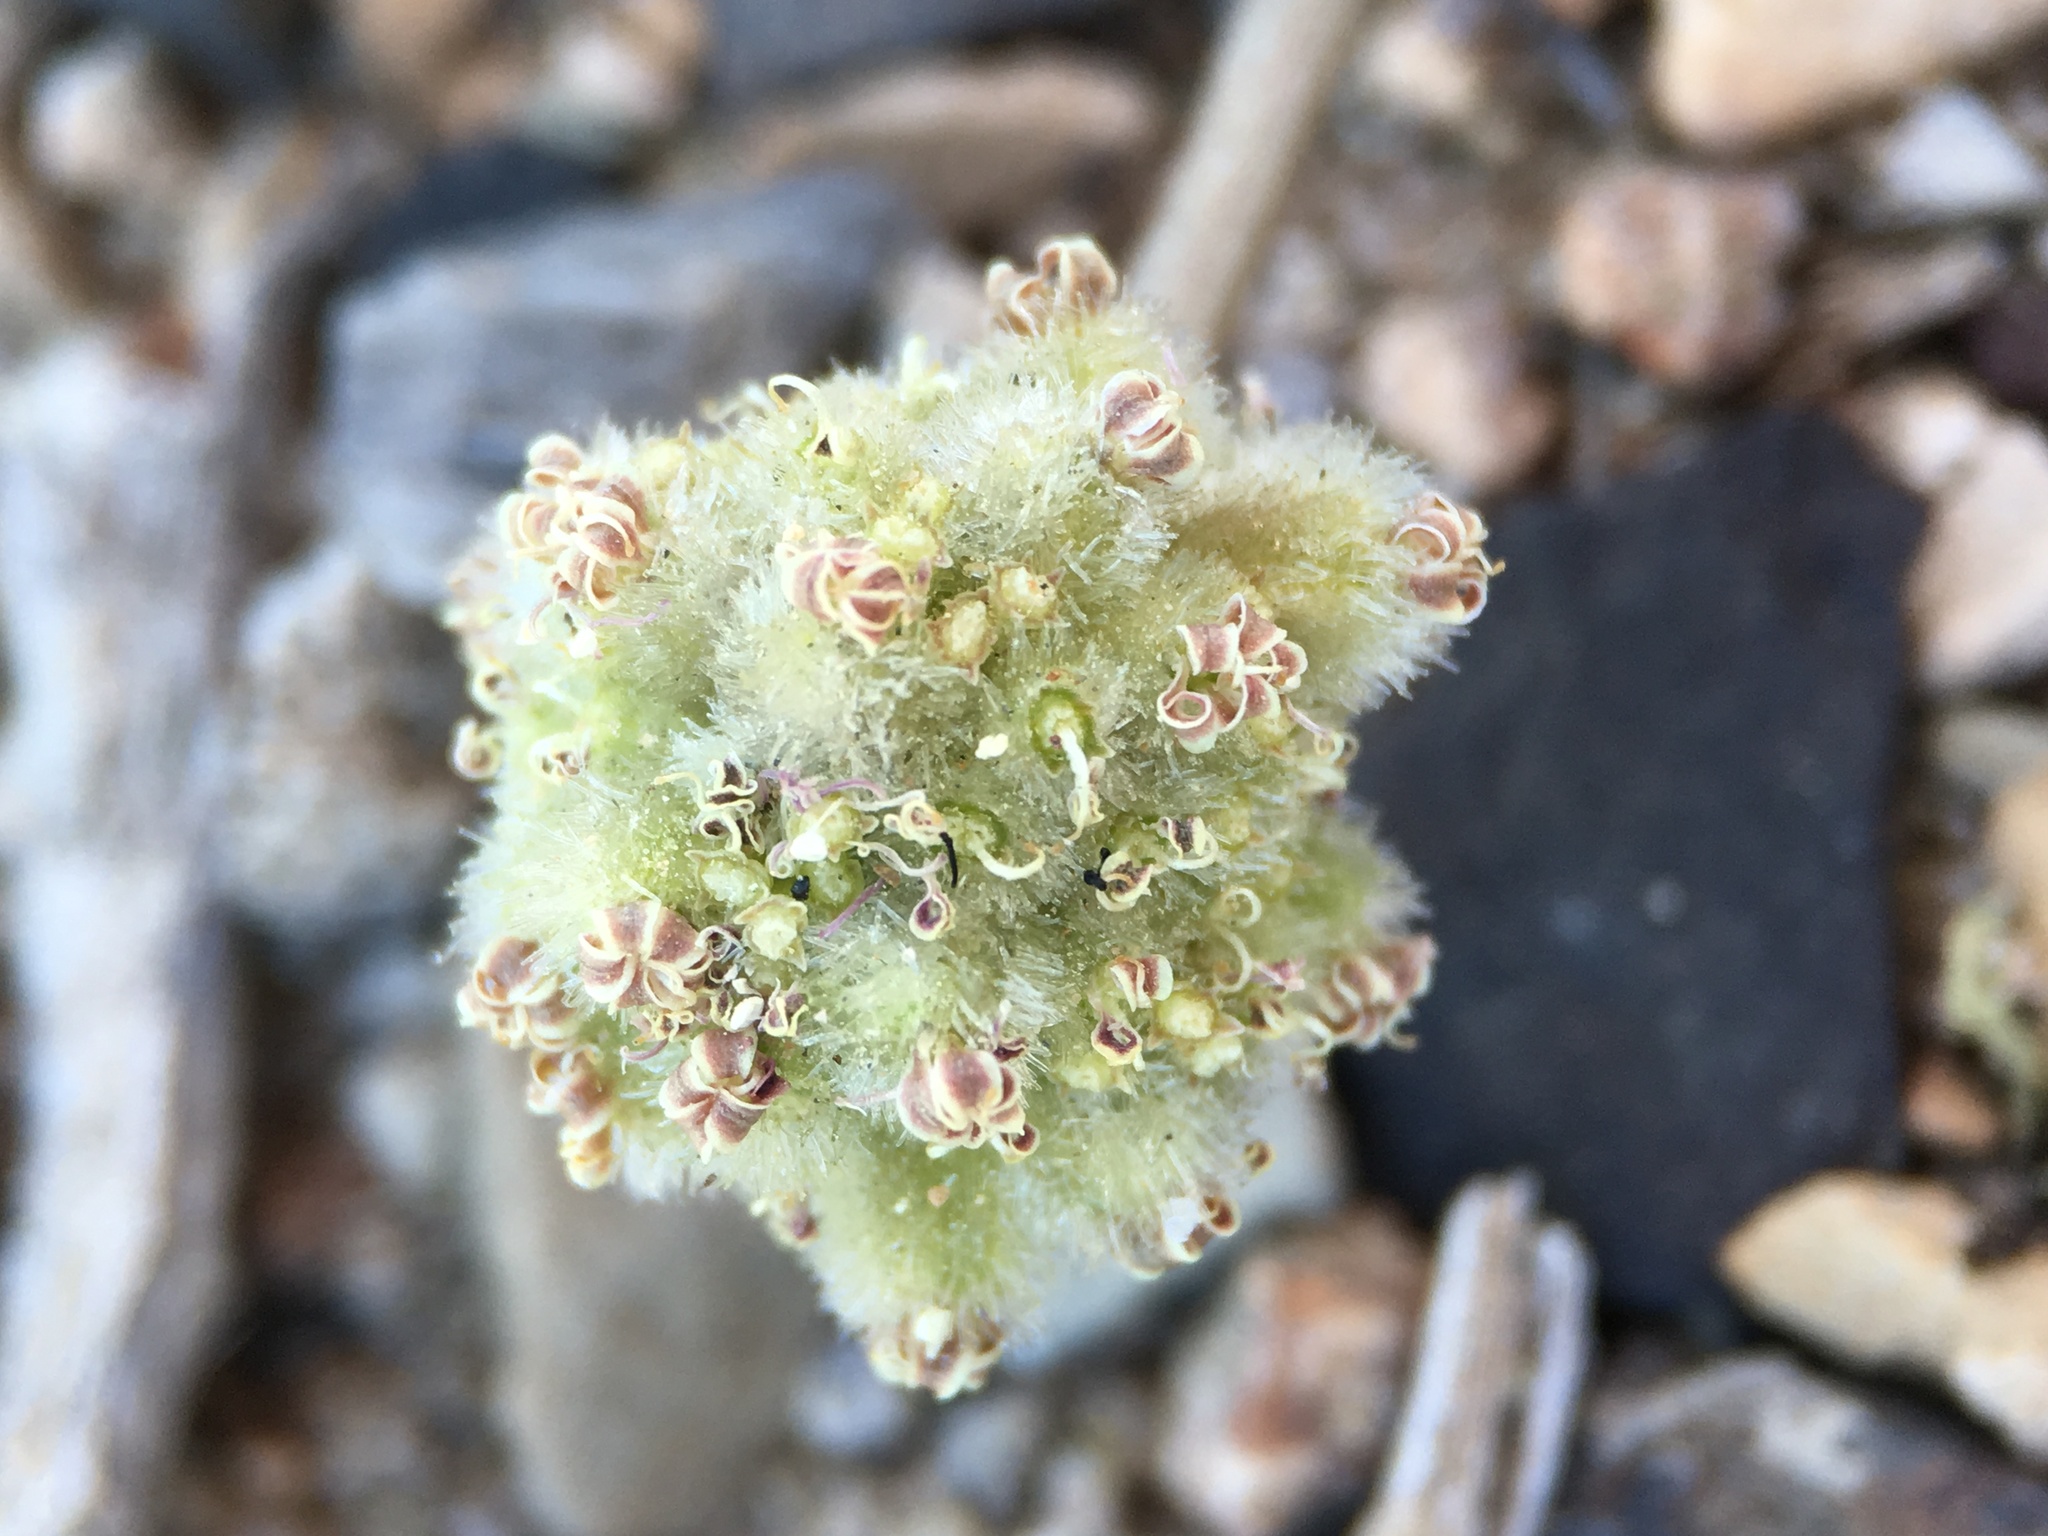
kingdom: Plantae
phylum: Tracheophyta
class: Magnoliopsida
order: Apiales
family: Apiaceae
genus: Cymopterus
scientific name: Cymopterus ripleyi
